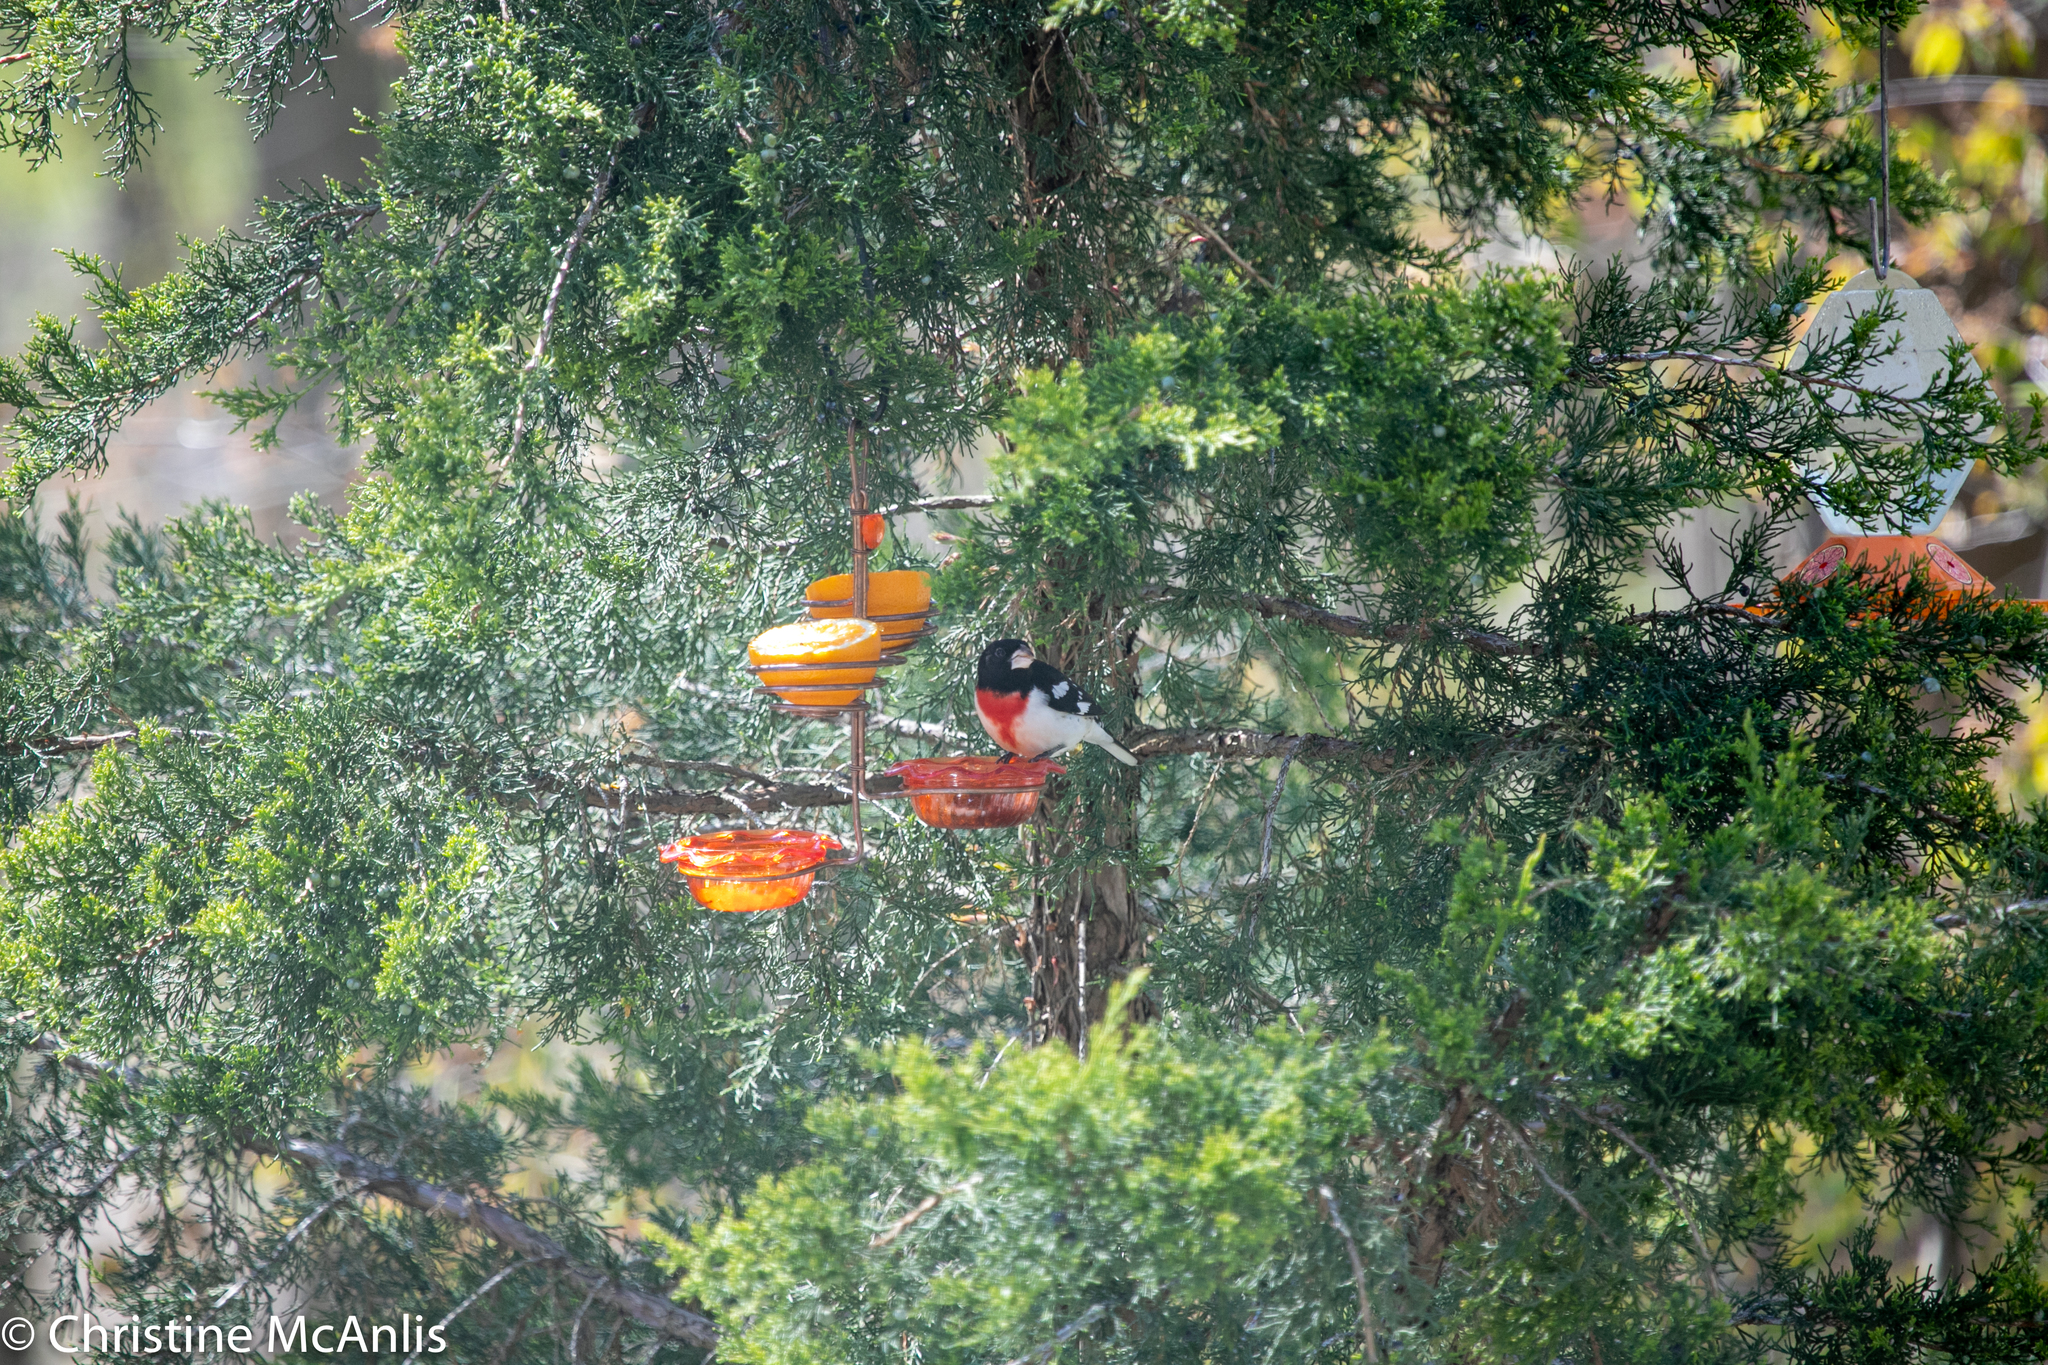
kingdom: Animalia
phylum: Chordata
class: Aves
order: Passeriformes
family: Cardinalidae
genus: Pheucticus
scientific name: Pheucticus ludovicianus
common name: Rose-breasted grosbeak
